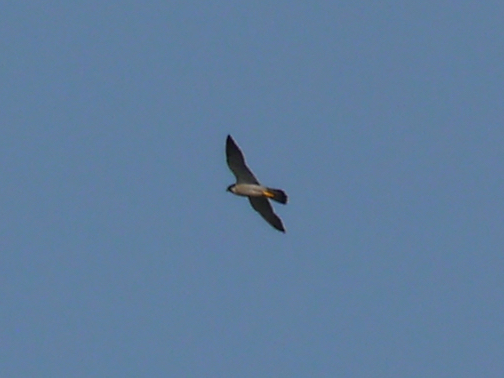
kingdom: Animalia
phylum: Chordata
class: Aves
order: Falconiformes
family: Falconidae
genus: Falco
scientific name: Falco peregrinus
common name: Peregrine falcon
